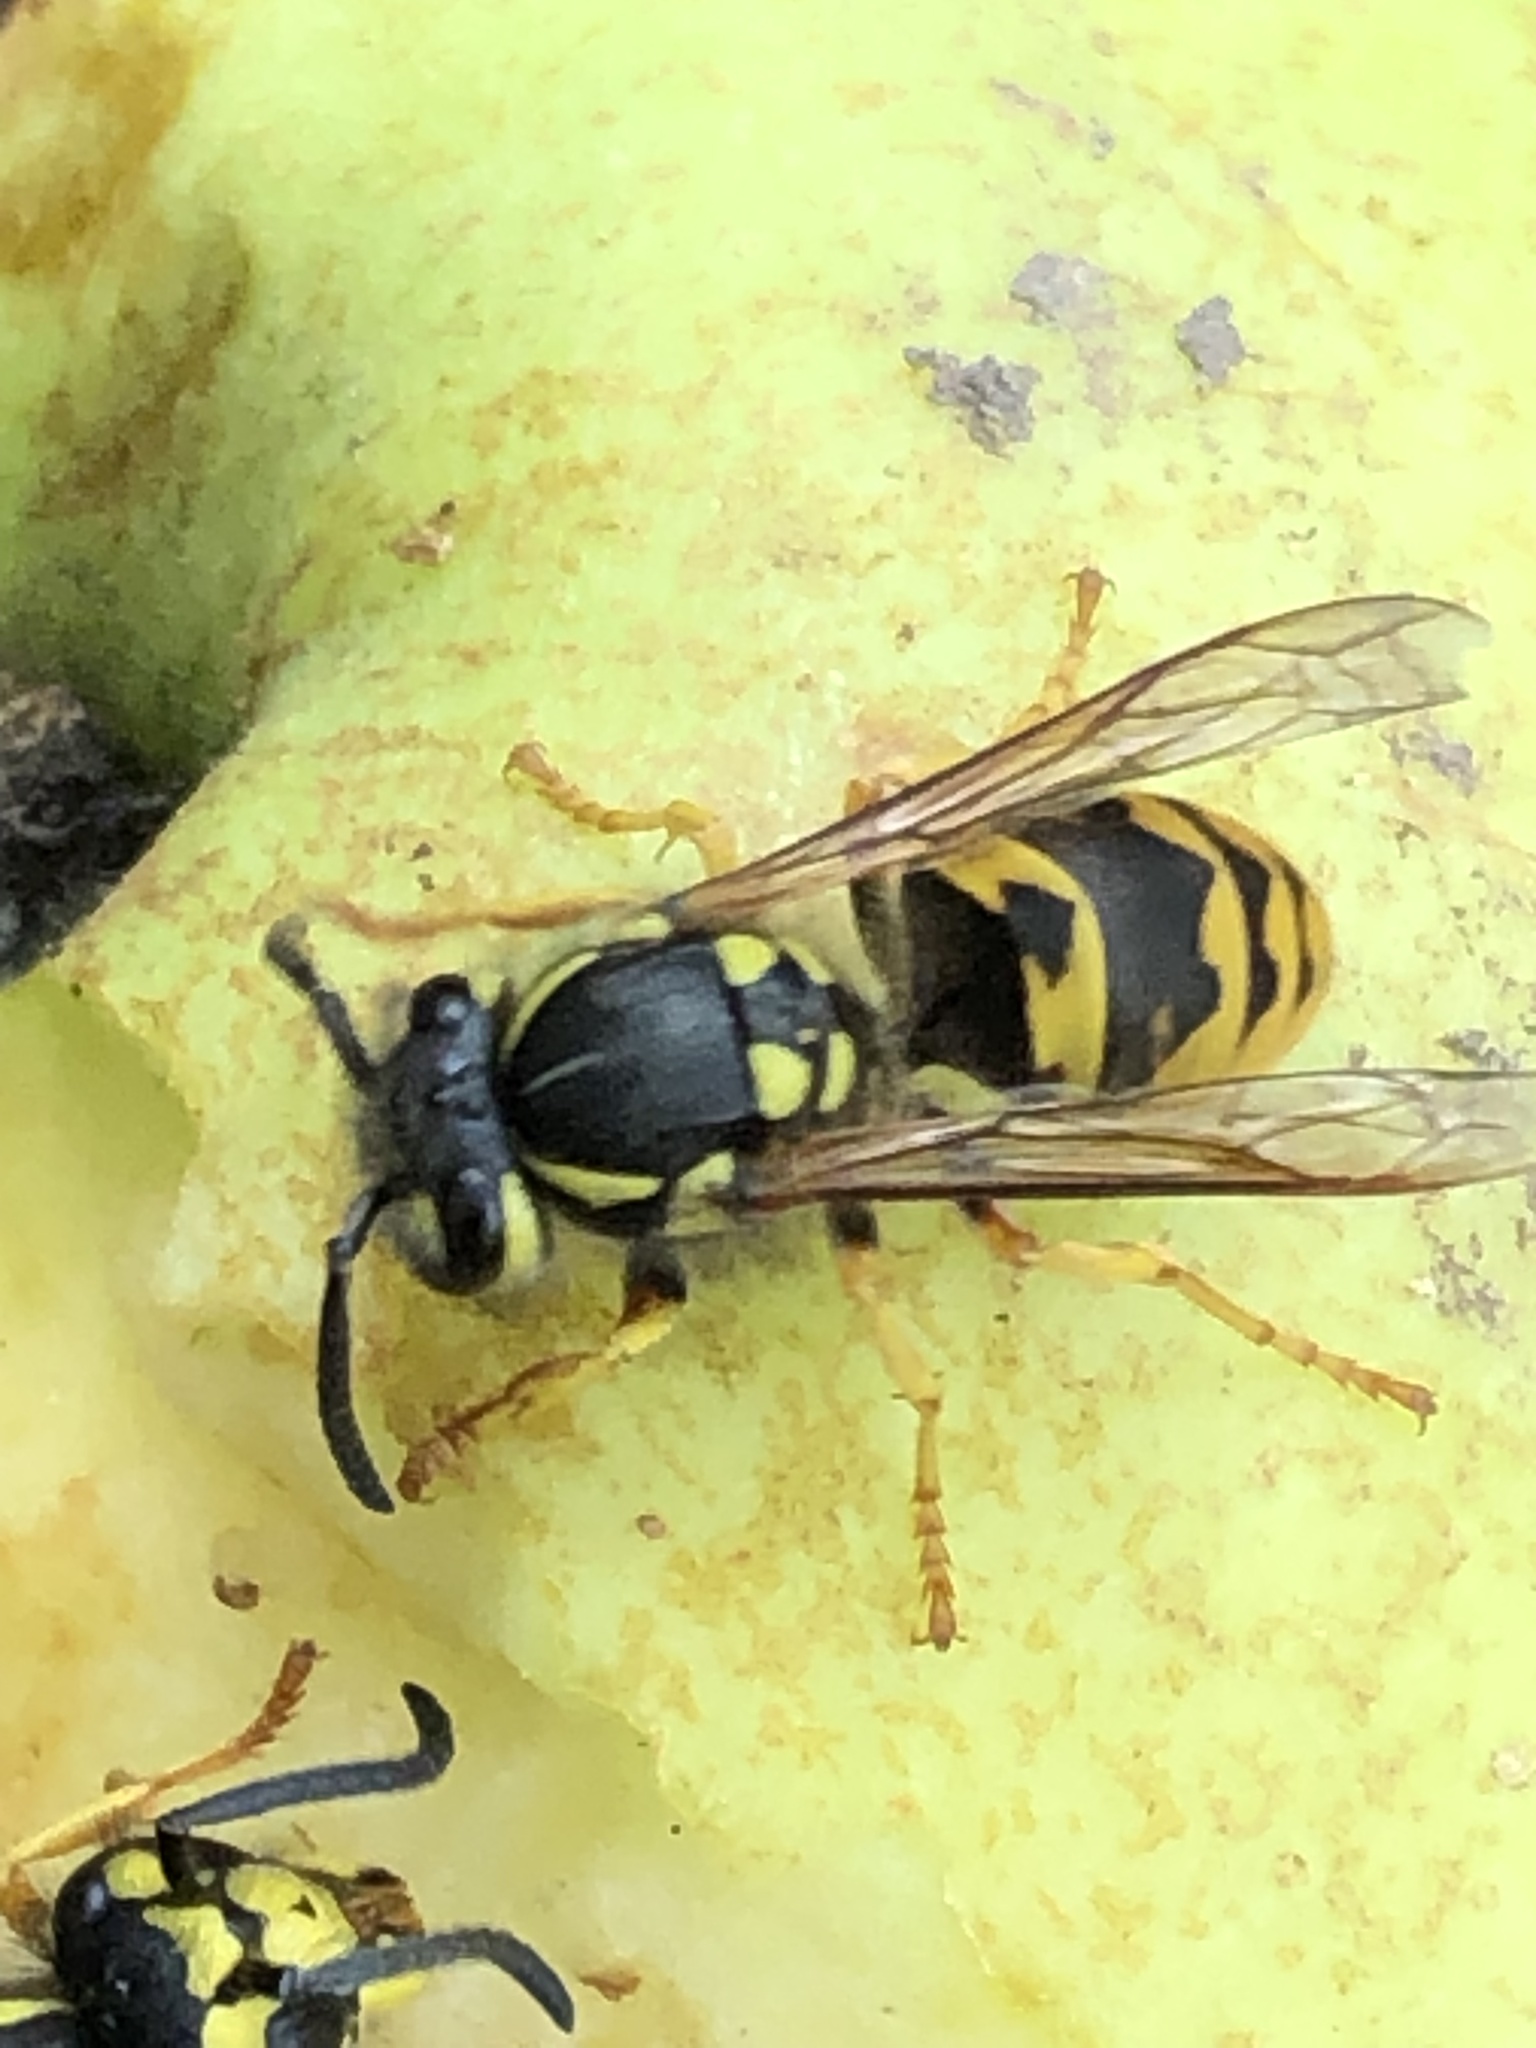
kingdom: Animalia
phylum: Arthropoda
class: Insecta
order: Hymenoptera
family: Vespidae
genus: Vespula
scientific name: Vespula germanica
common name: German wasp
